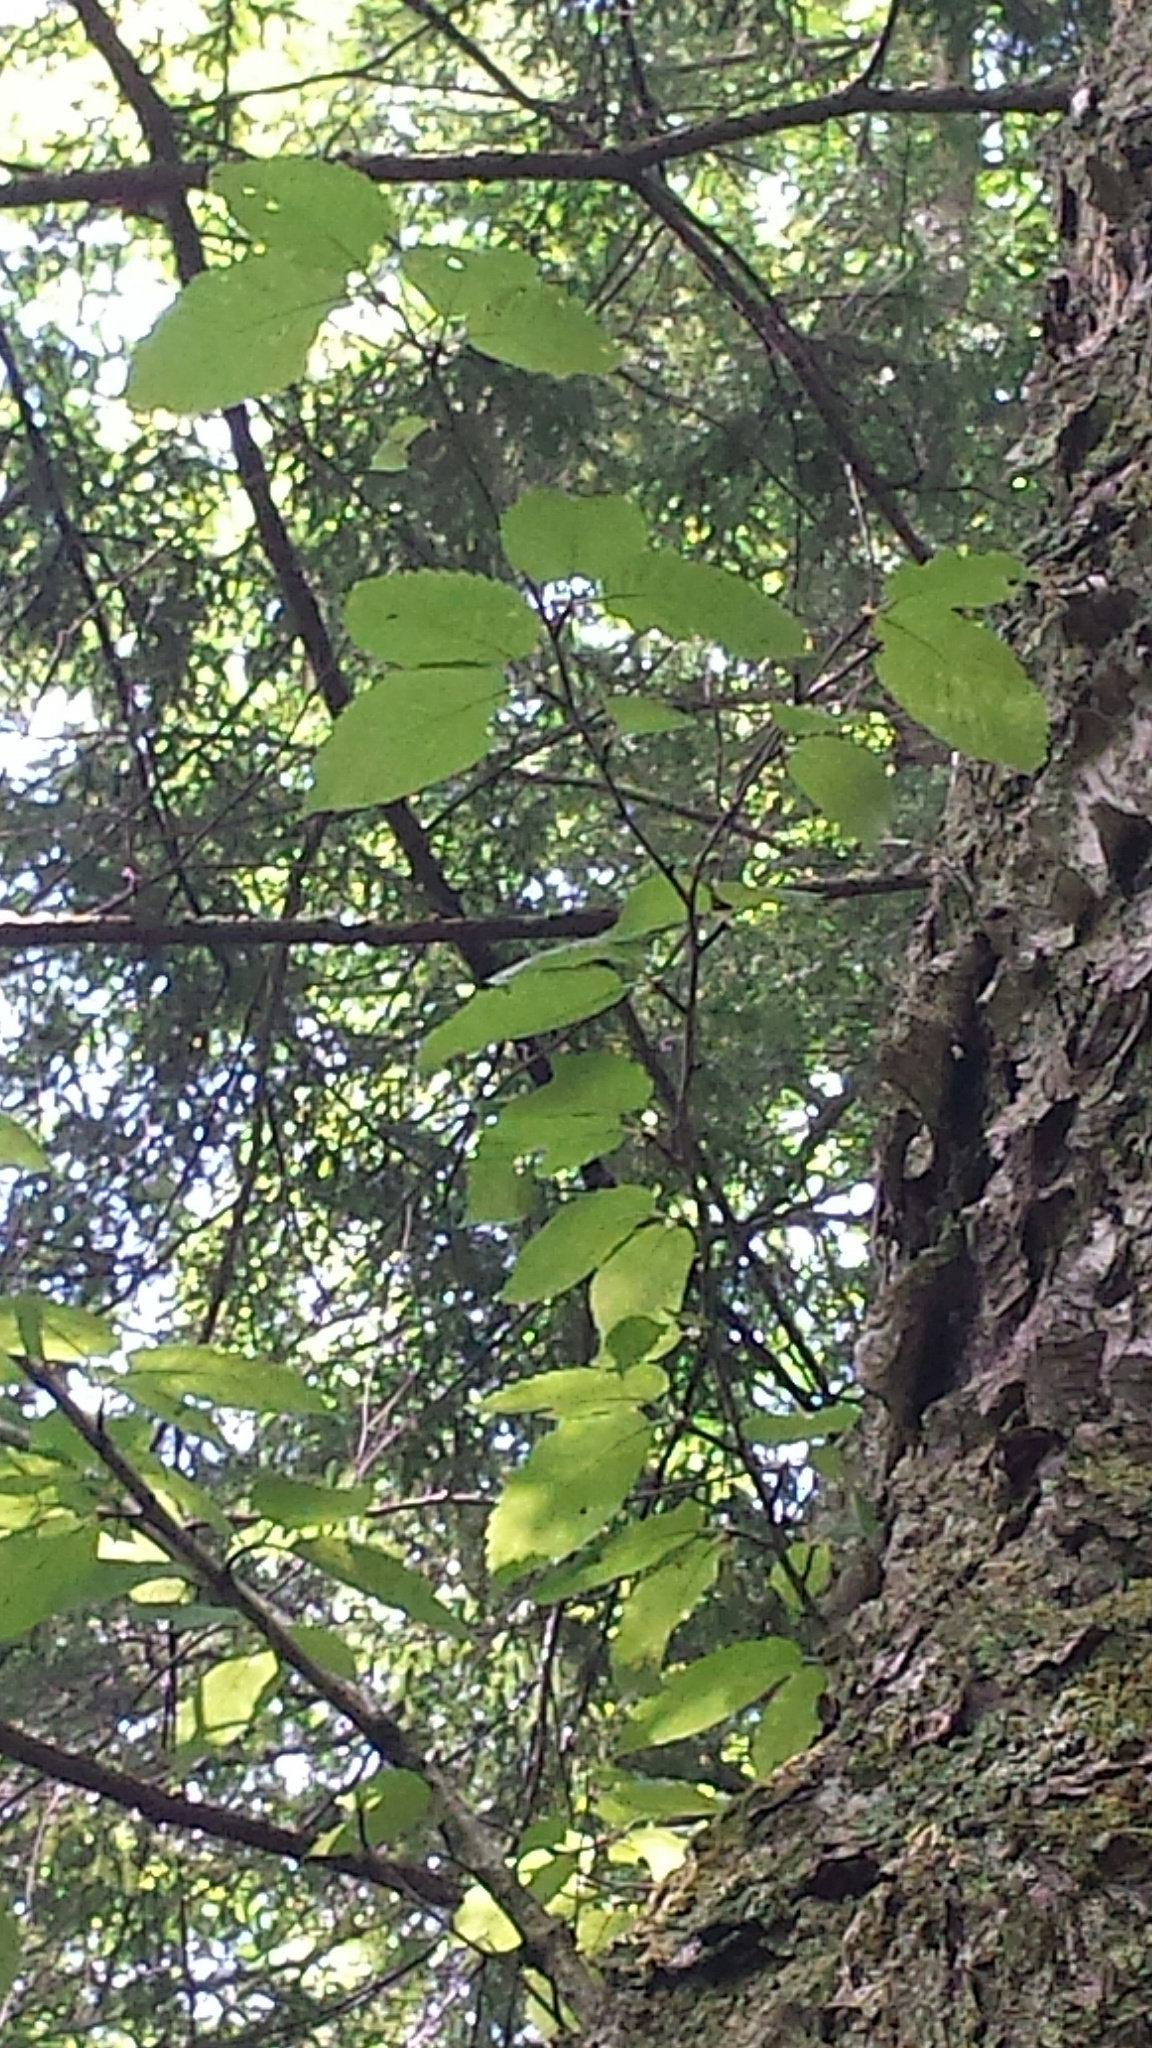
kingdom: Plantae
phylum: Tracheophyta
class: Magnoliopsida
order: Fagales
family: Betulaceae
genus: Betula
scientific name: Betula alleghaniensis
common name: Yellow birch
